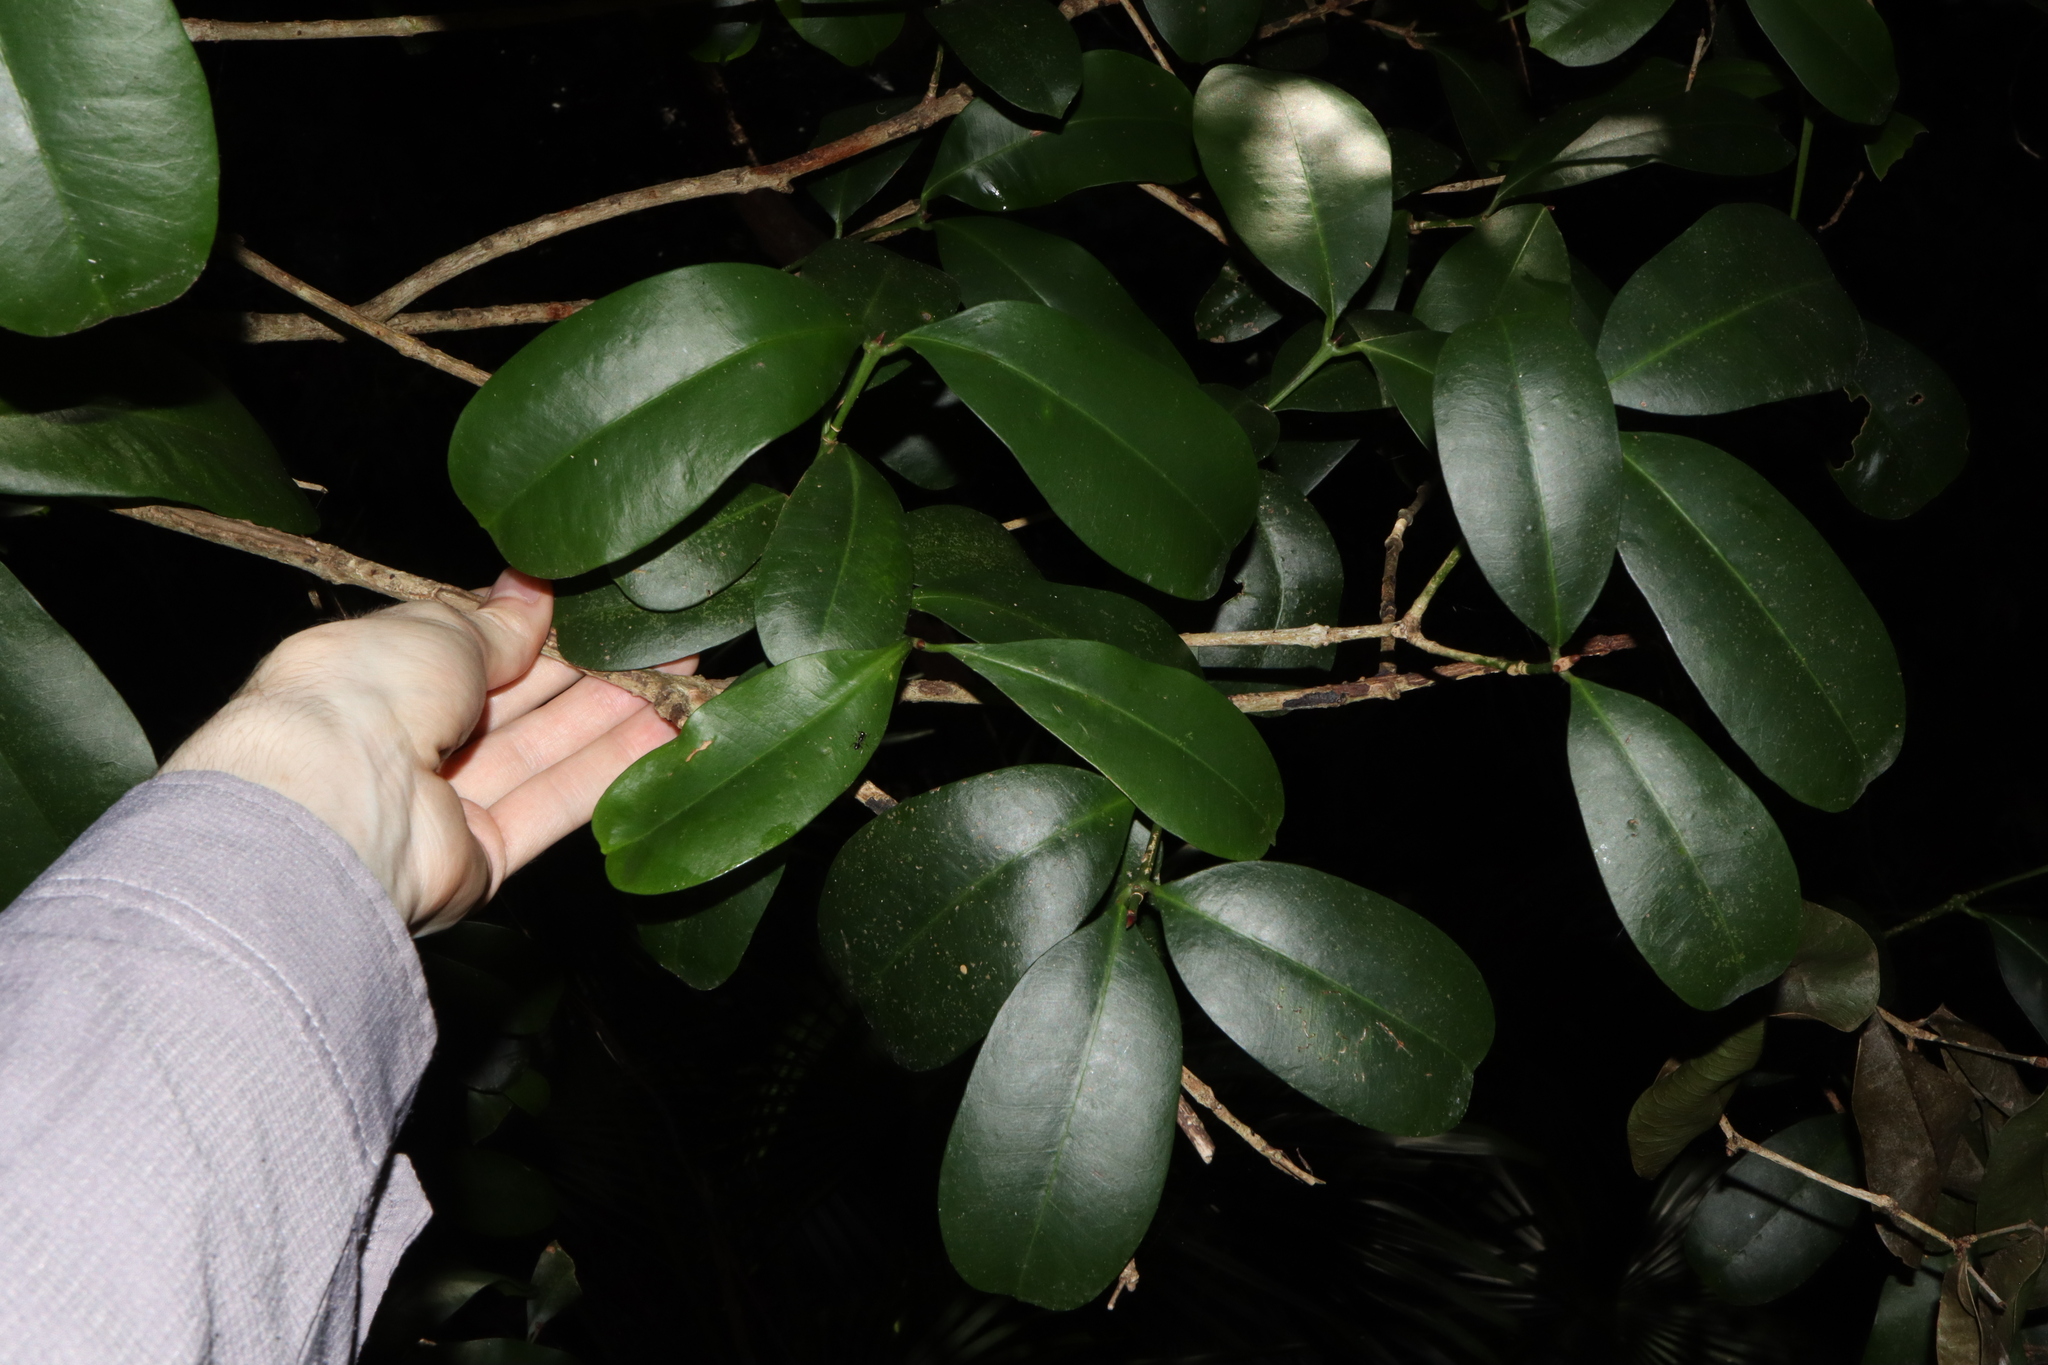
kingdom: Plantae
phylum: Tracheophyta
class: Magnoliopsida
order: Malpighiales
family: Euphorbiaceae
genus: Baloghia
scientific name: Baloghia inophylla
